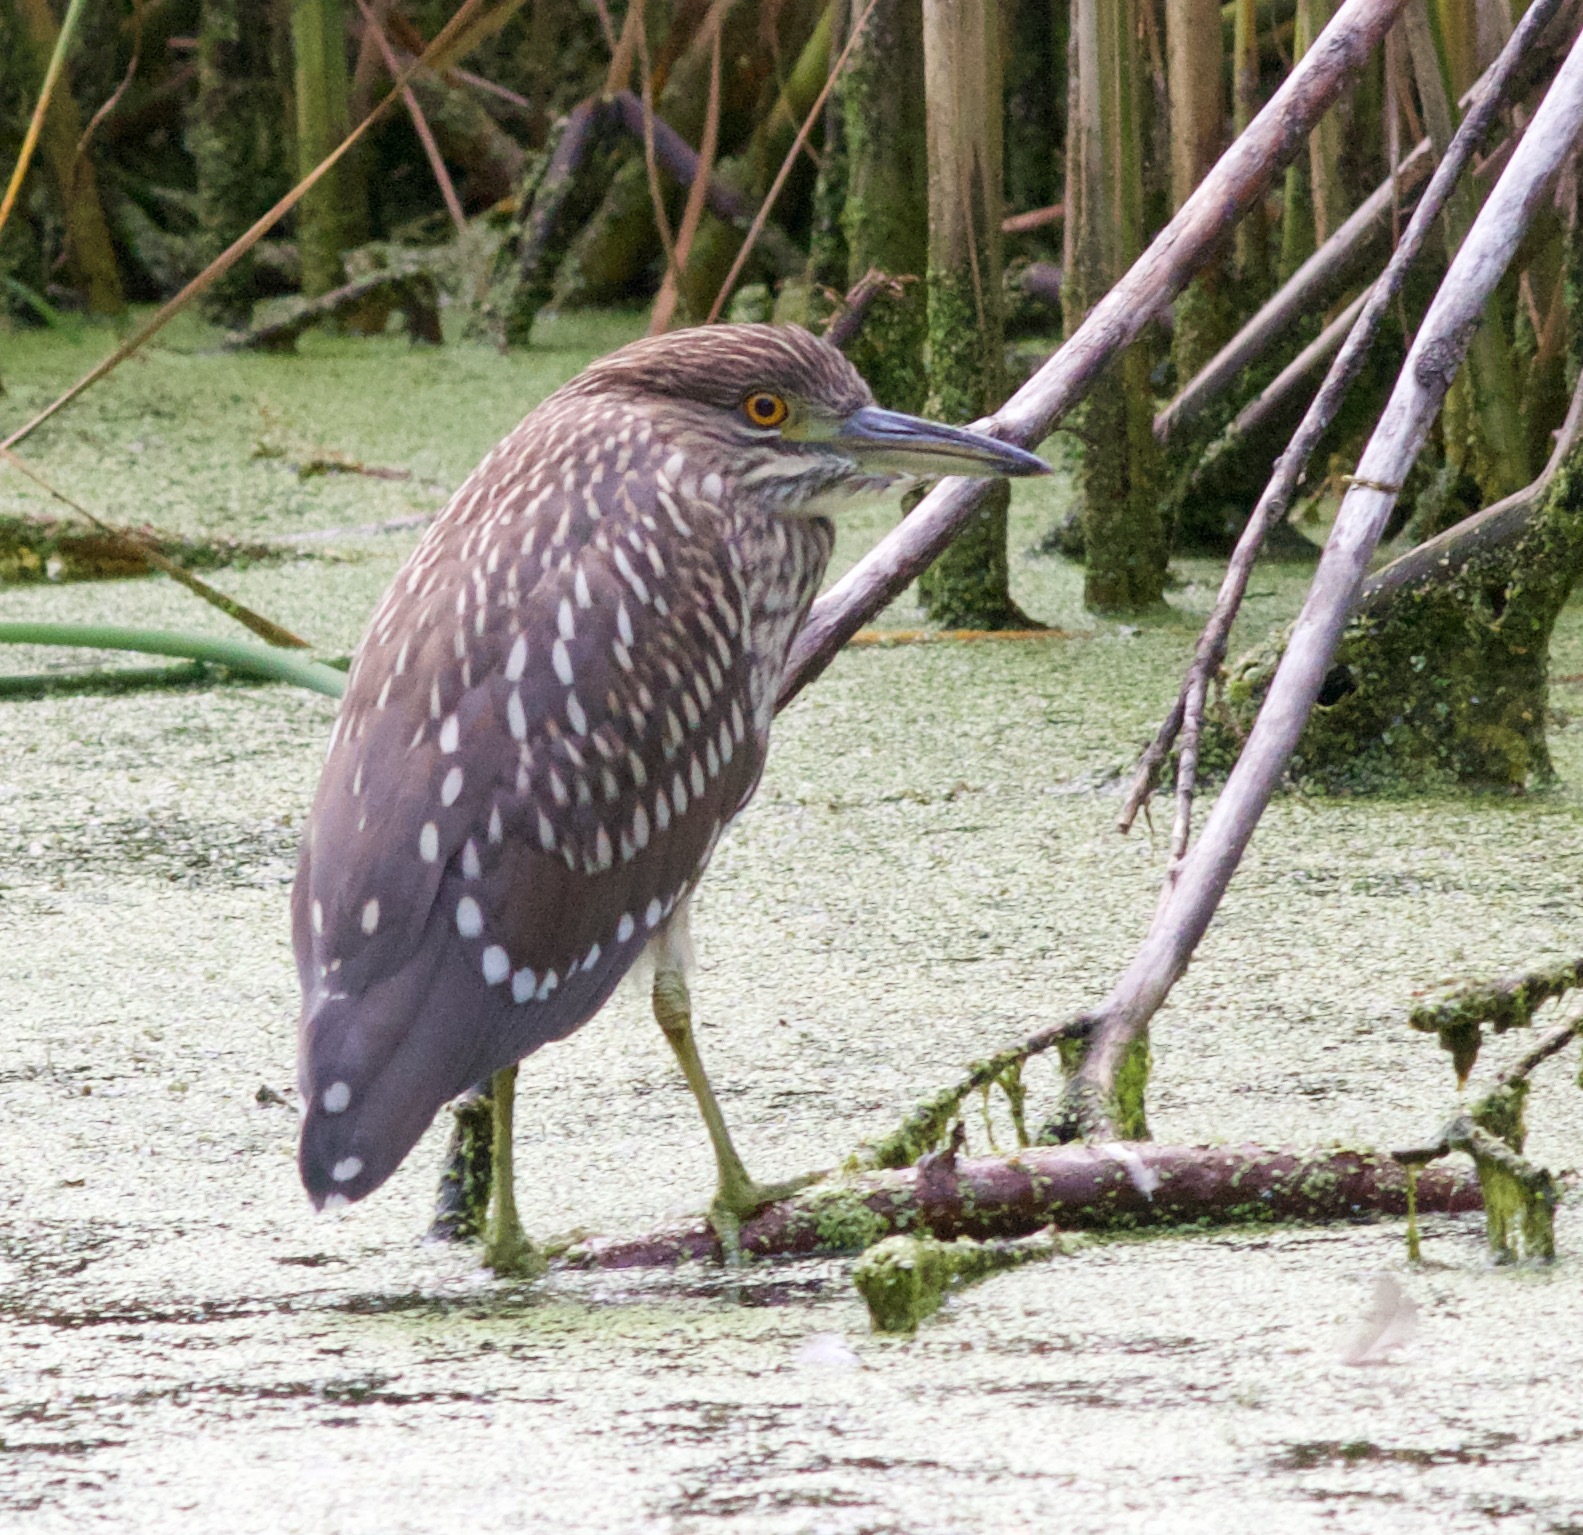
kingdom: Animalia
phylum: Chordata
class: Aves
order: Pelecaniformes
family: Ardeidae
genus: Nycticorax
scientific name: Nycticorax nycticorax
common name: Black-crowned night heron
